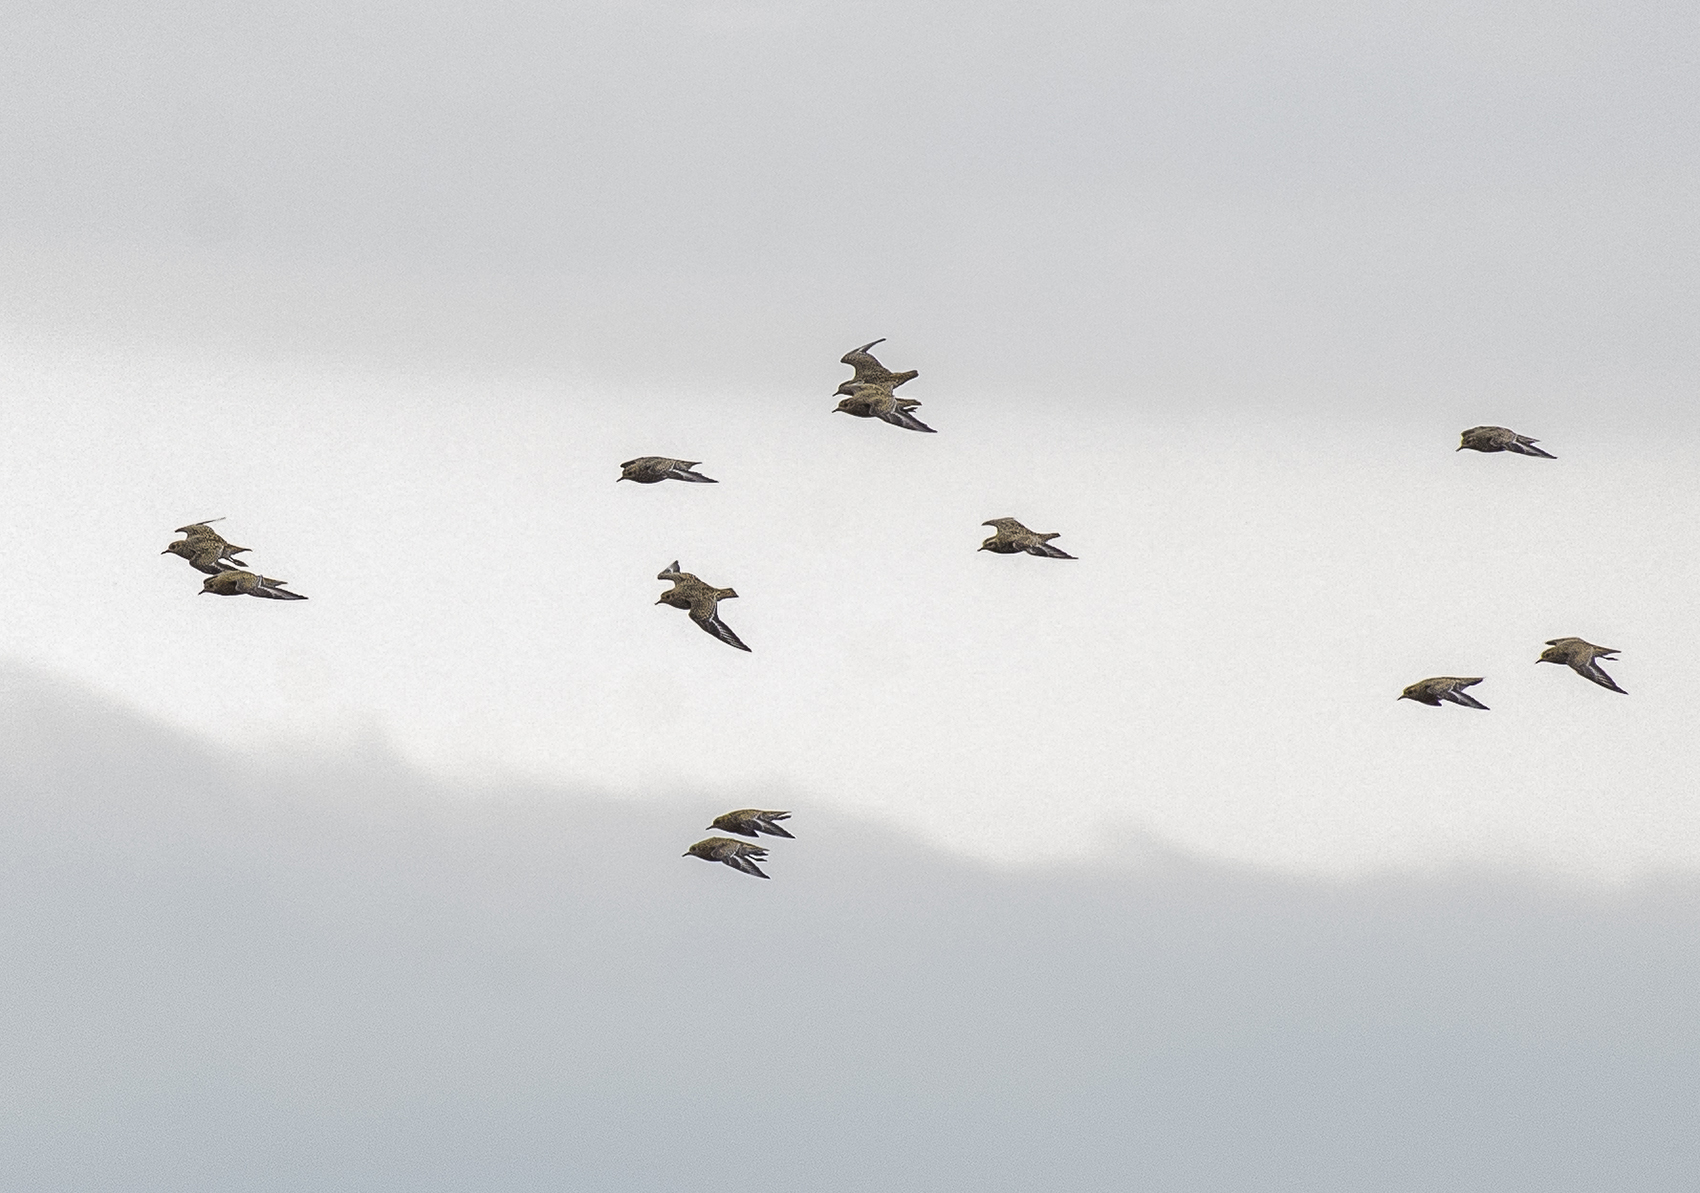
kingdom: Animalia
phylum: Chordata
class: Aves
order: Charadriiformes
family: Charadriidae
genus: Pluvialis
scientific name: Pluvialis apricaria
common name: European golden plover
